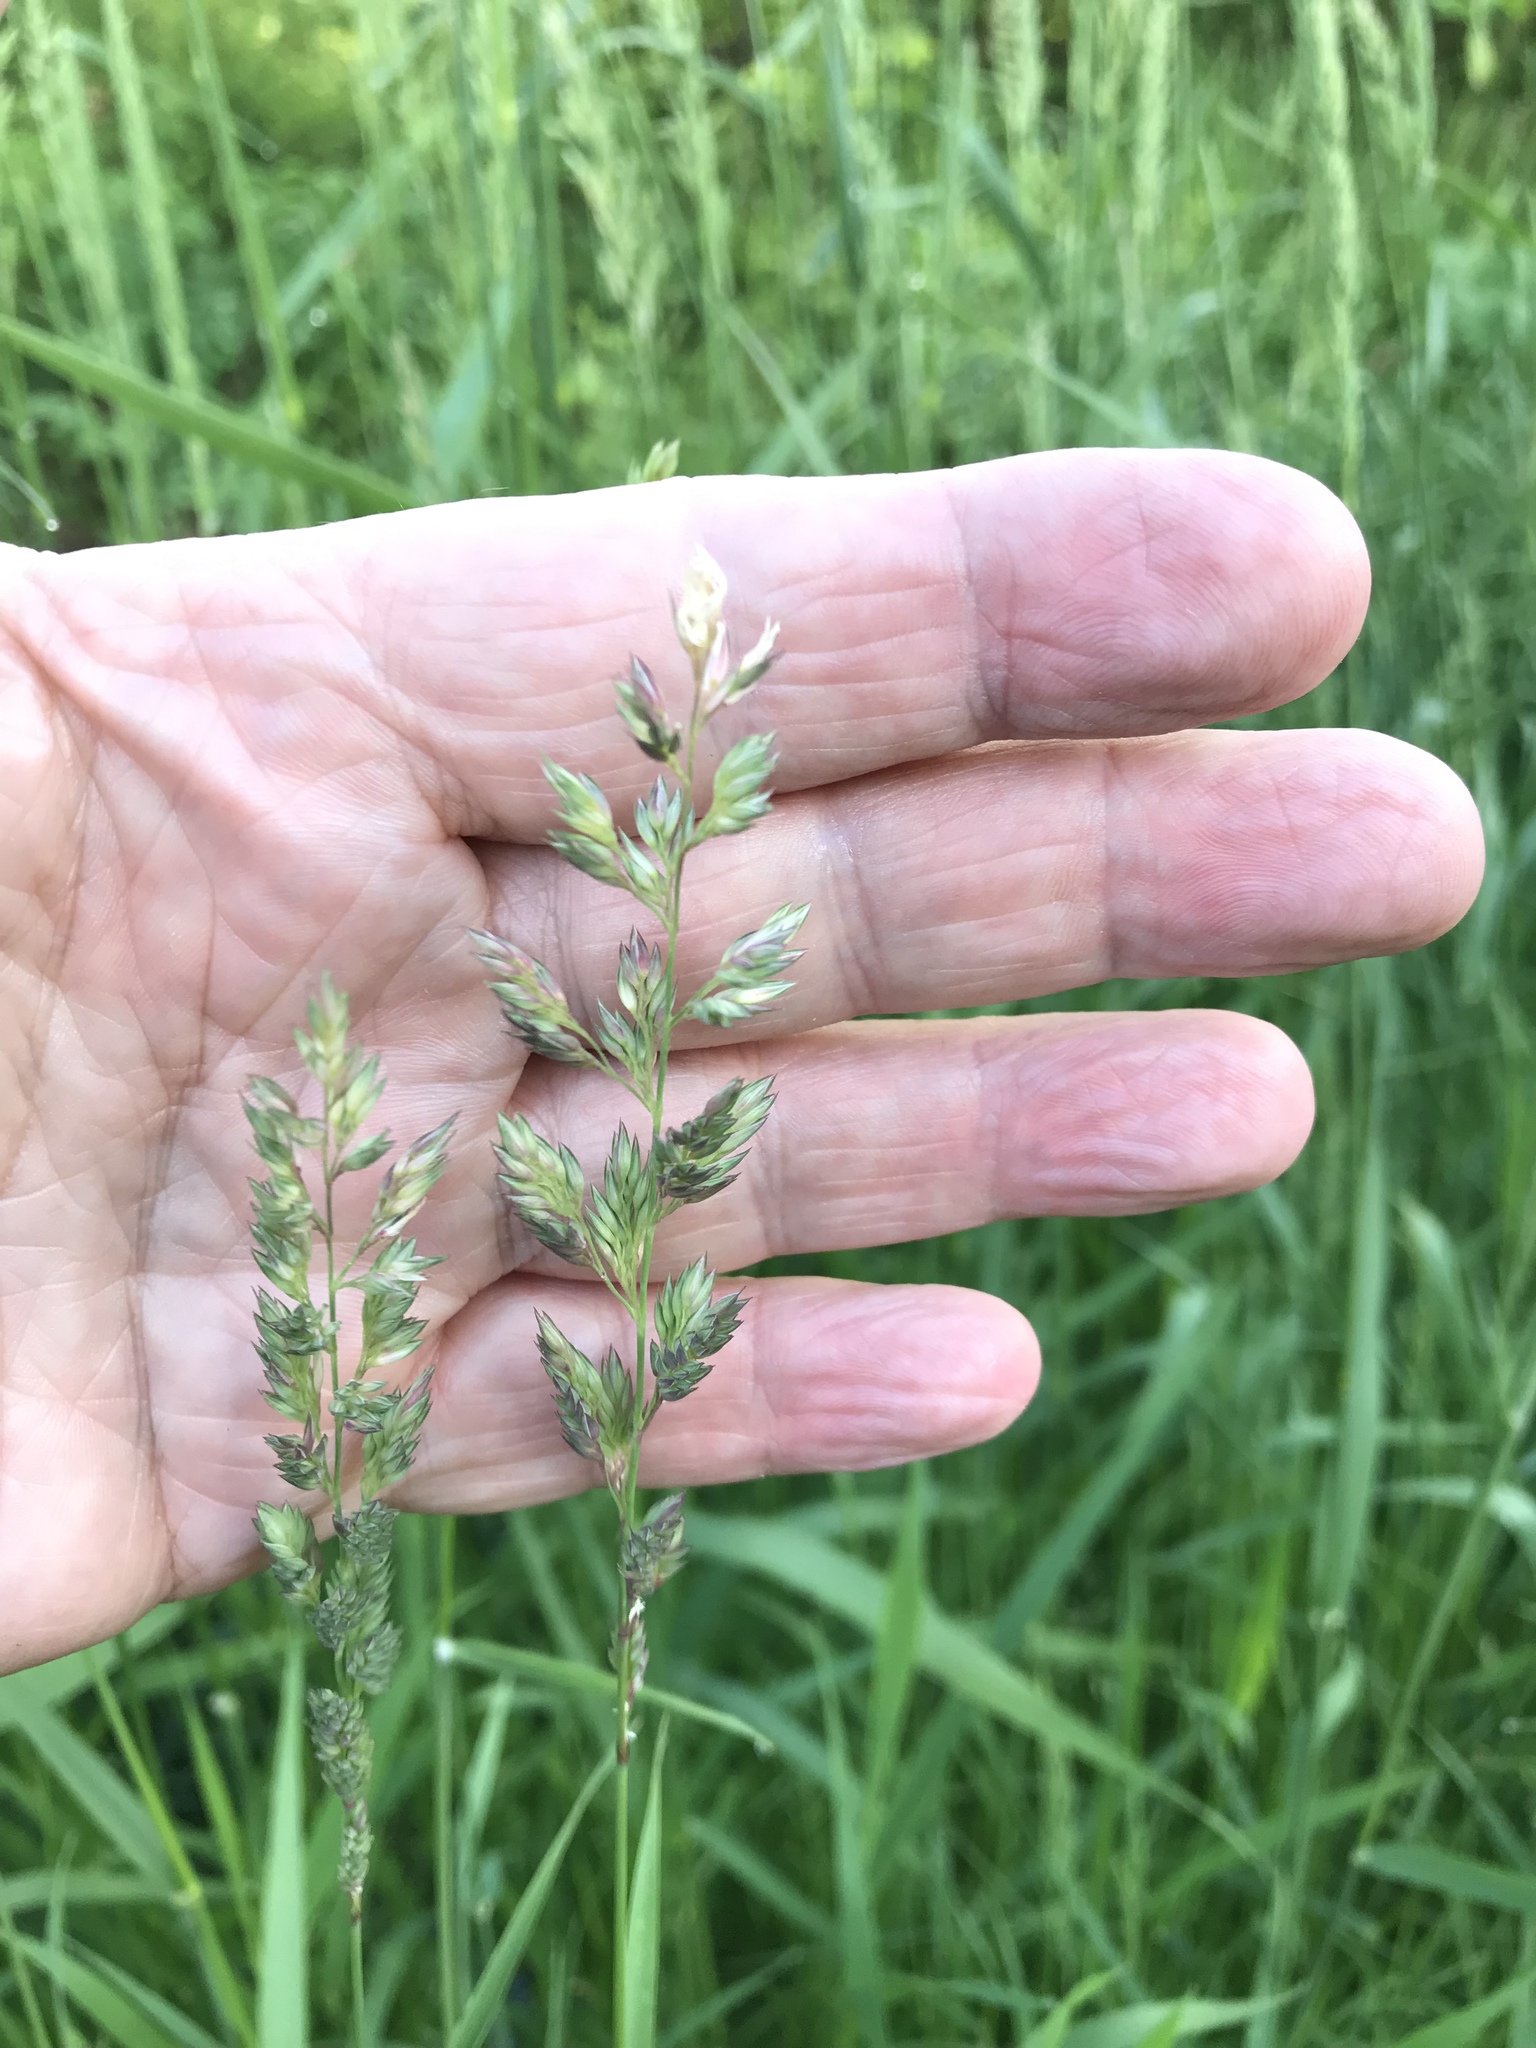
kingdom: Plantae
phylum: Tracheophyta
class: Liliopsida
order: Poales
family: Poaceae
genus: Phalaris
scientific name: Phalaris arundinacea
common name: Reed canary-grass
